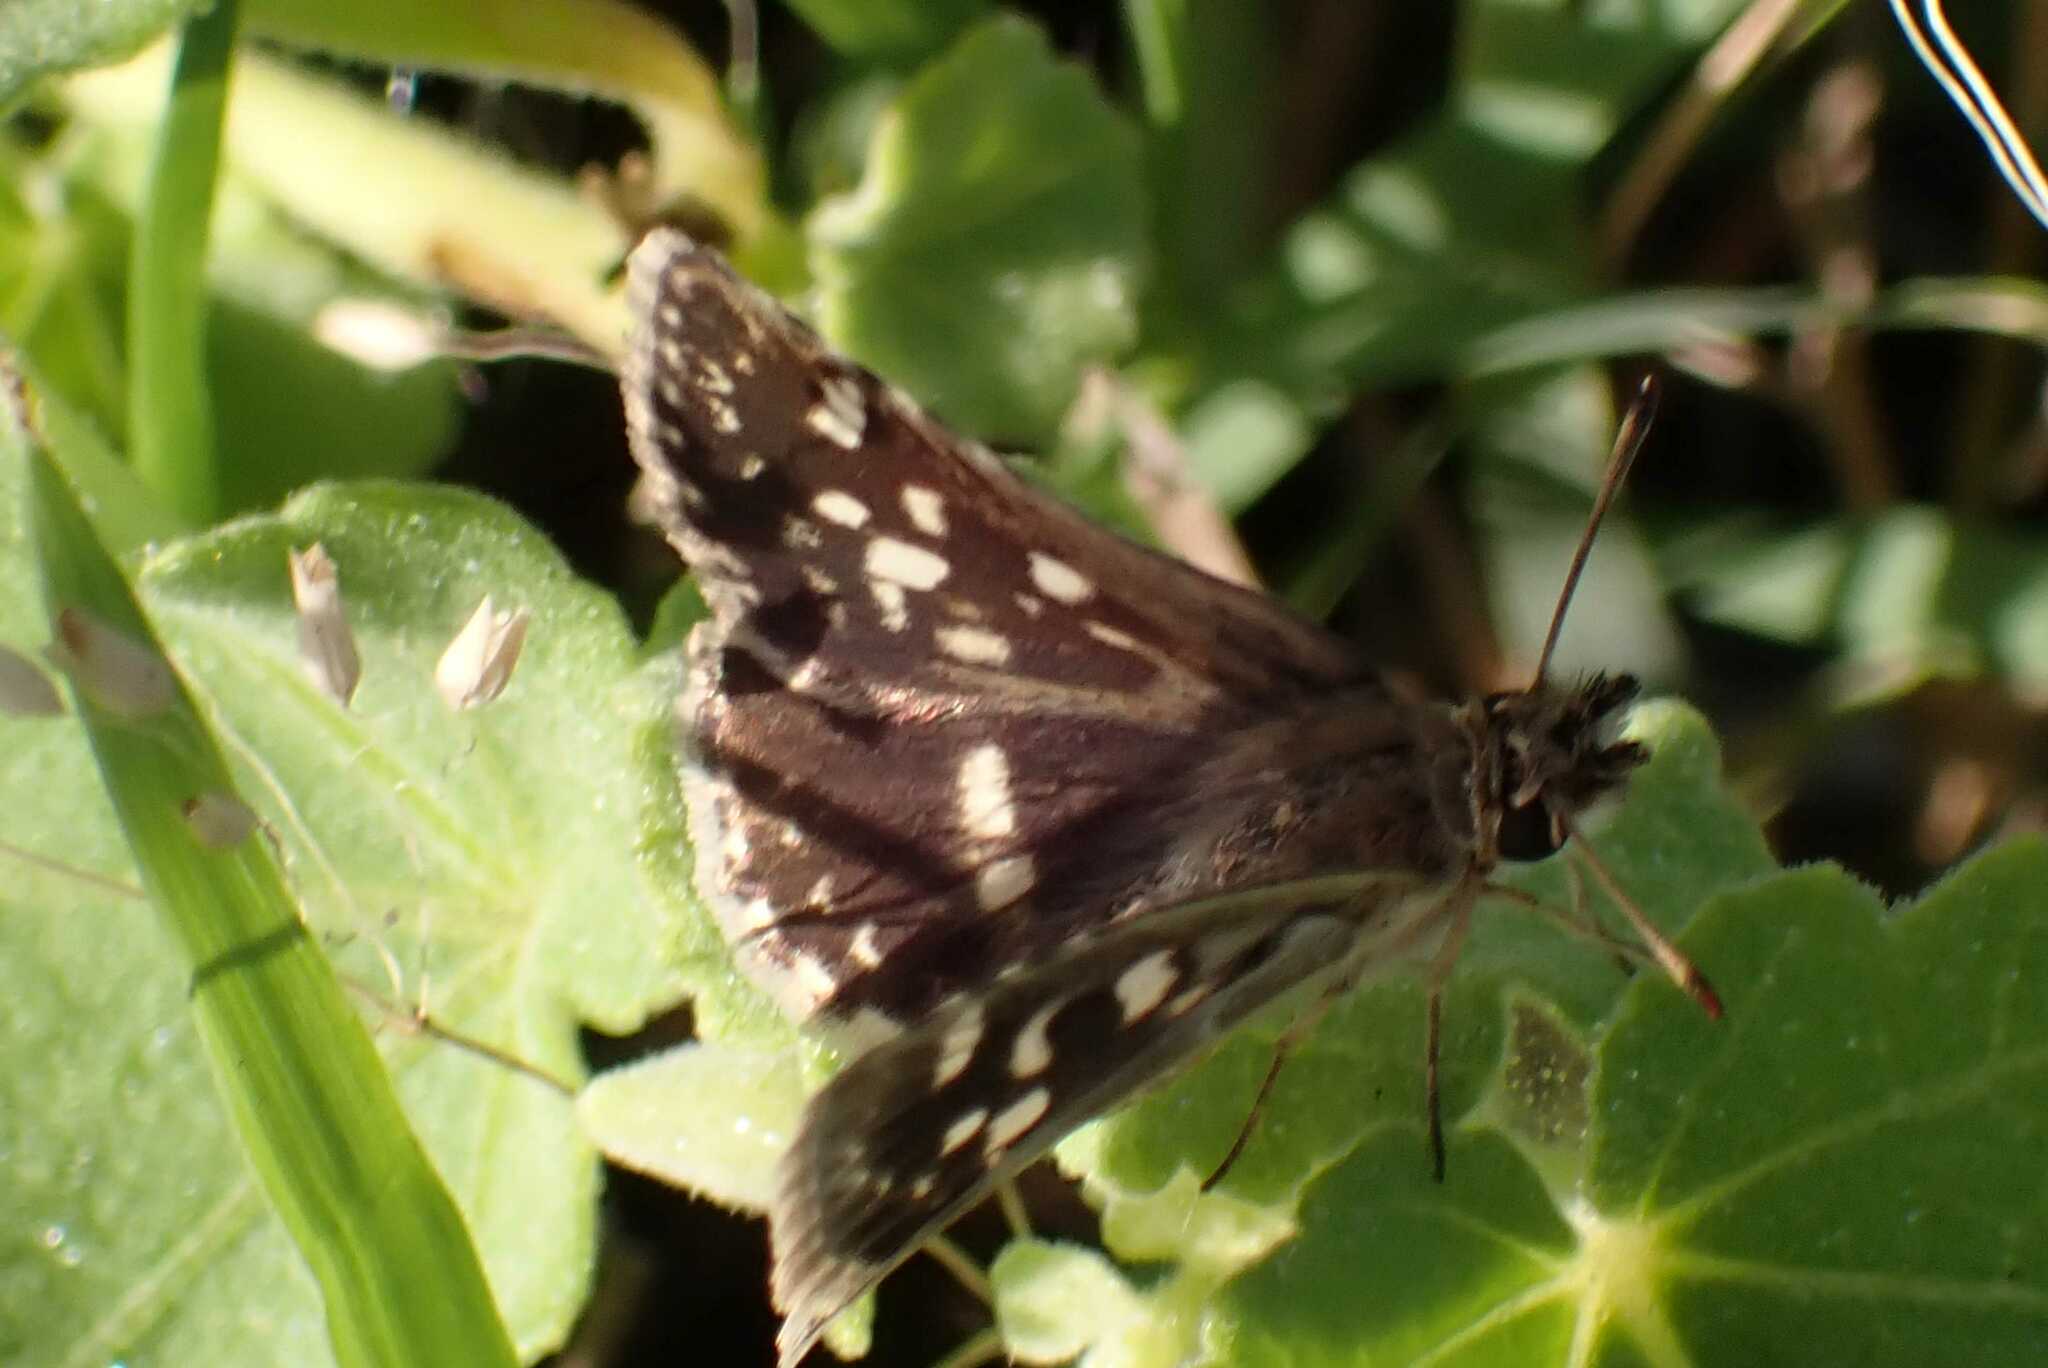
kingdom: Animalia
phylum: Arthropoda
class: Insecta
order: Lepidoptera
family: Hesperiidae
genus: Ernsta
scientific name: Ernsta delagoae
